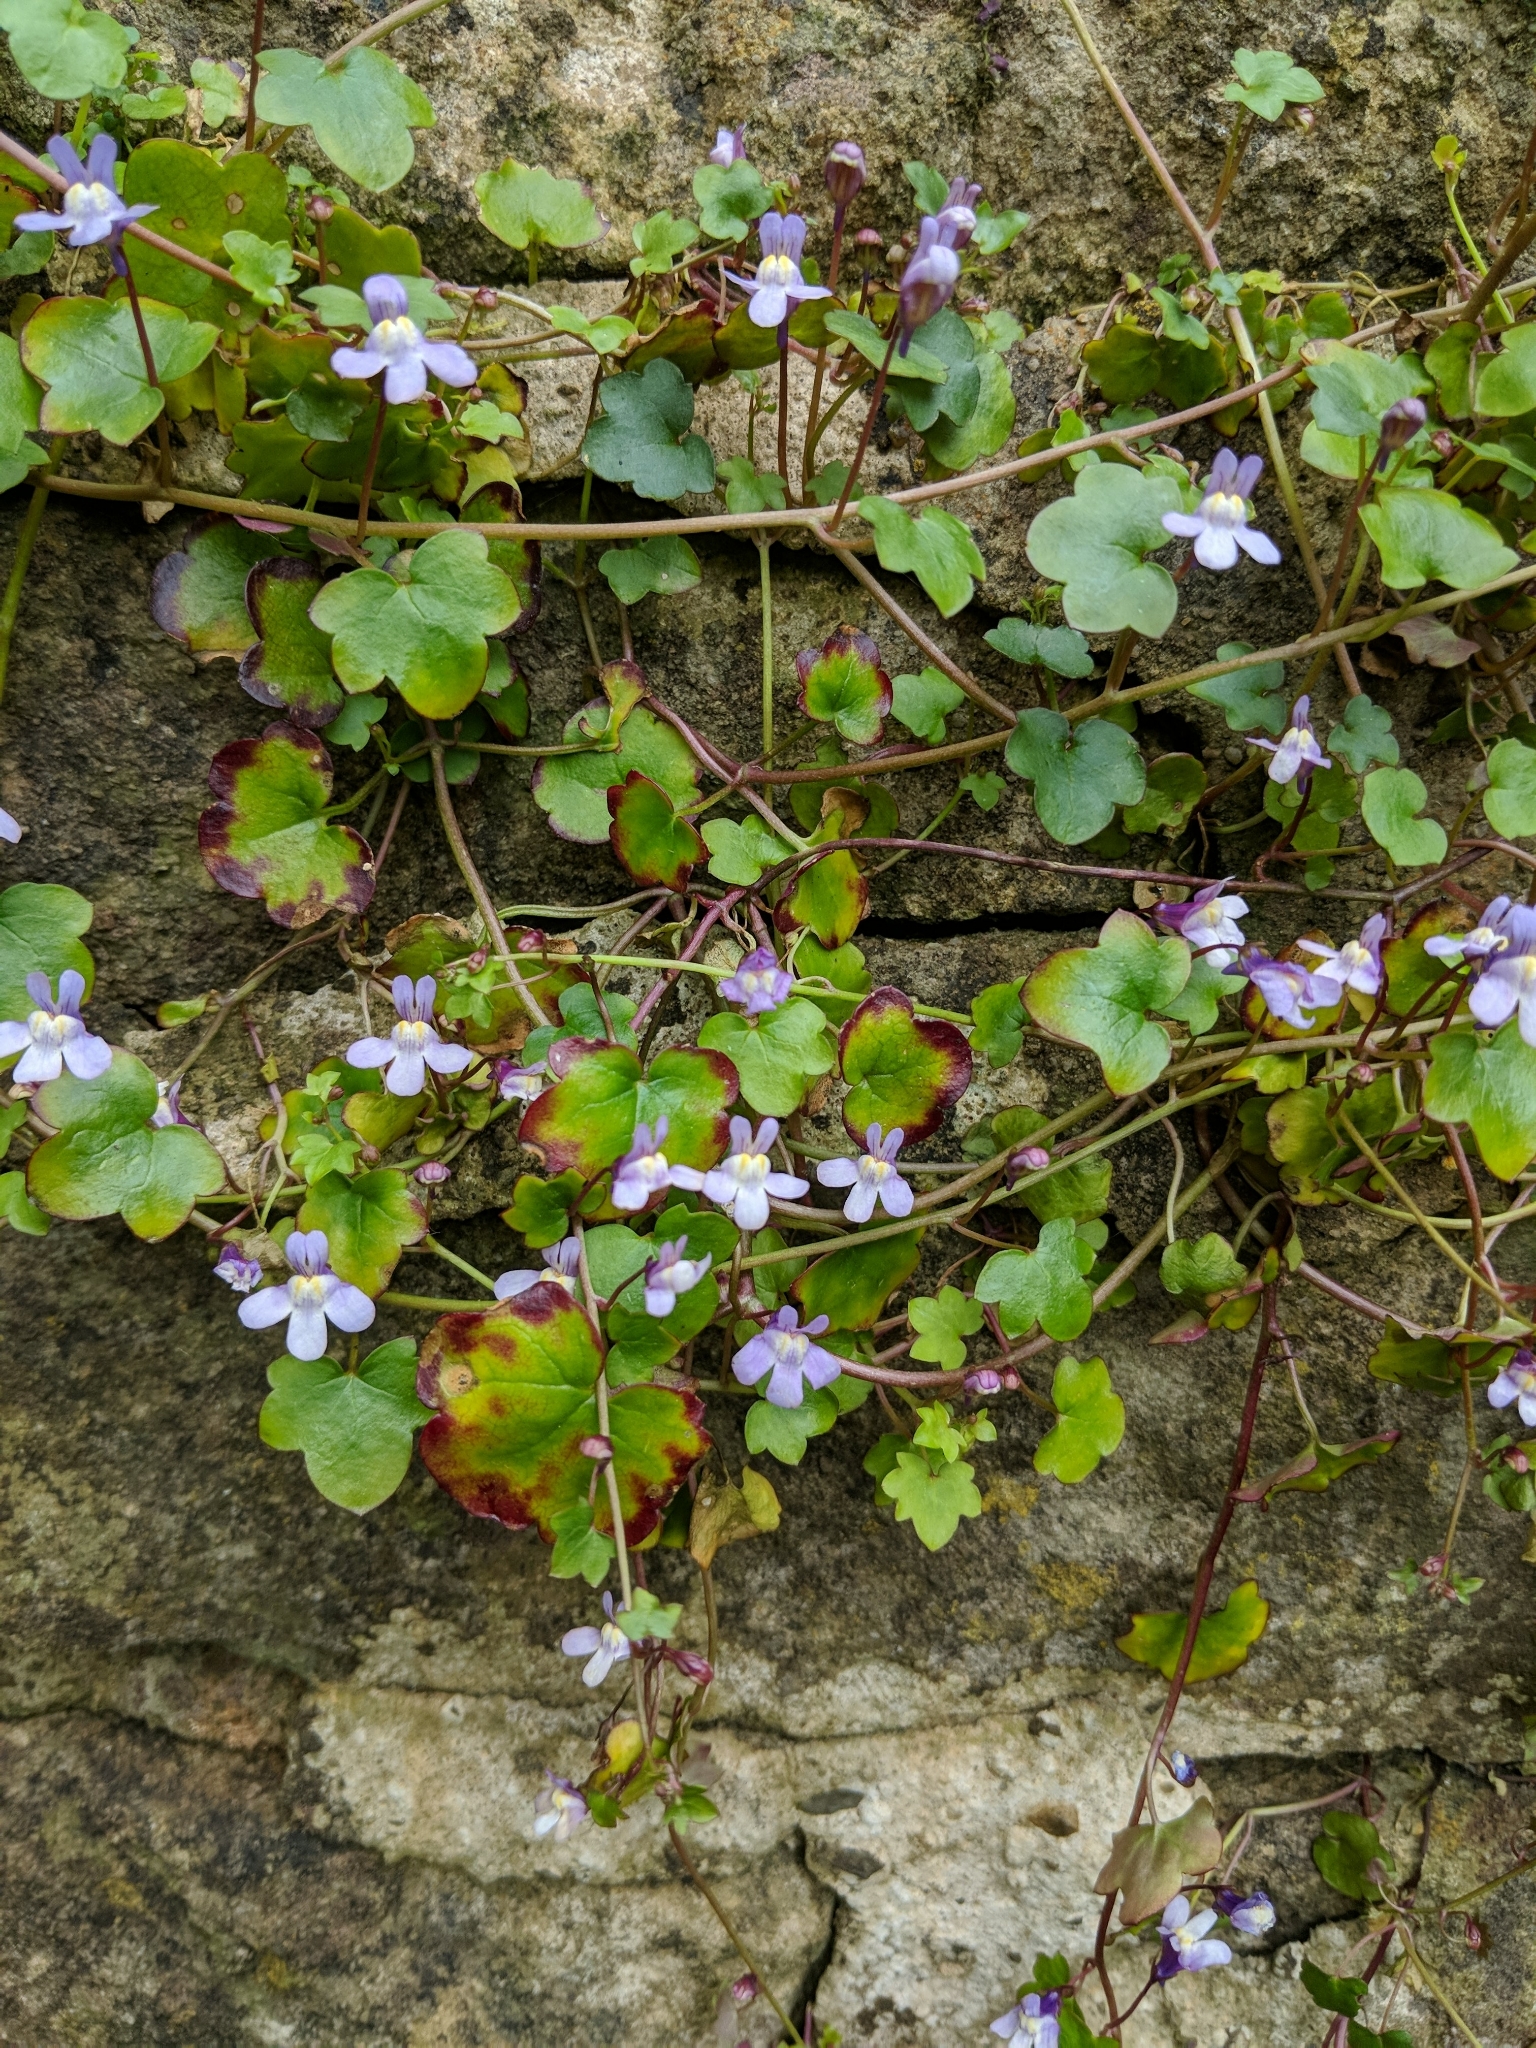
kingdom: Plantae
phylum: Tracheophyta
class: Magnoliopsida
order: Lamiales
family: Plantaginaceae
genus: Cymbalaria
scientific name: Cymbalaria muralis
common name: Ivy-leaved toadflax
